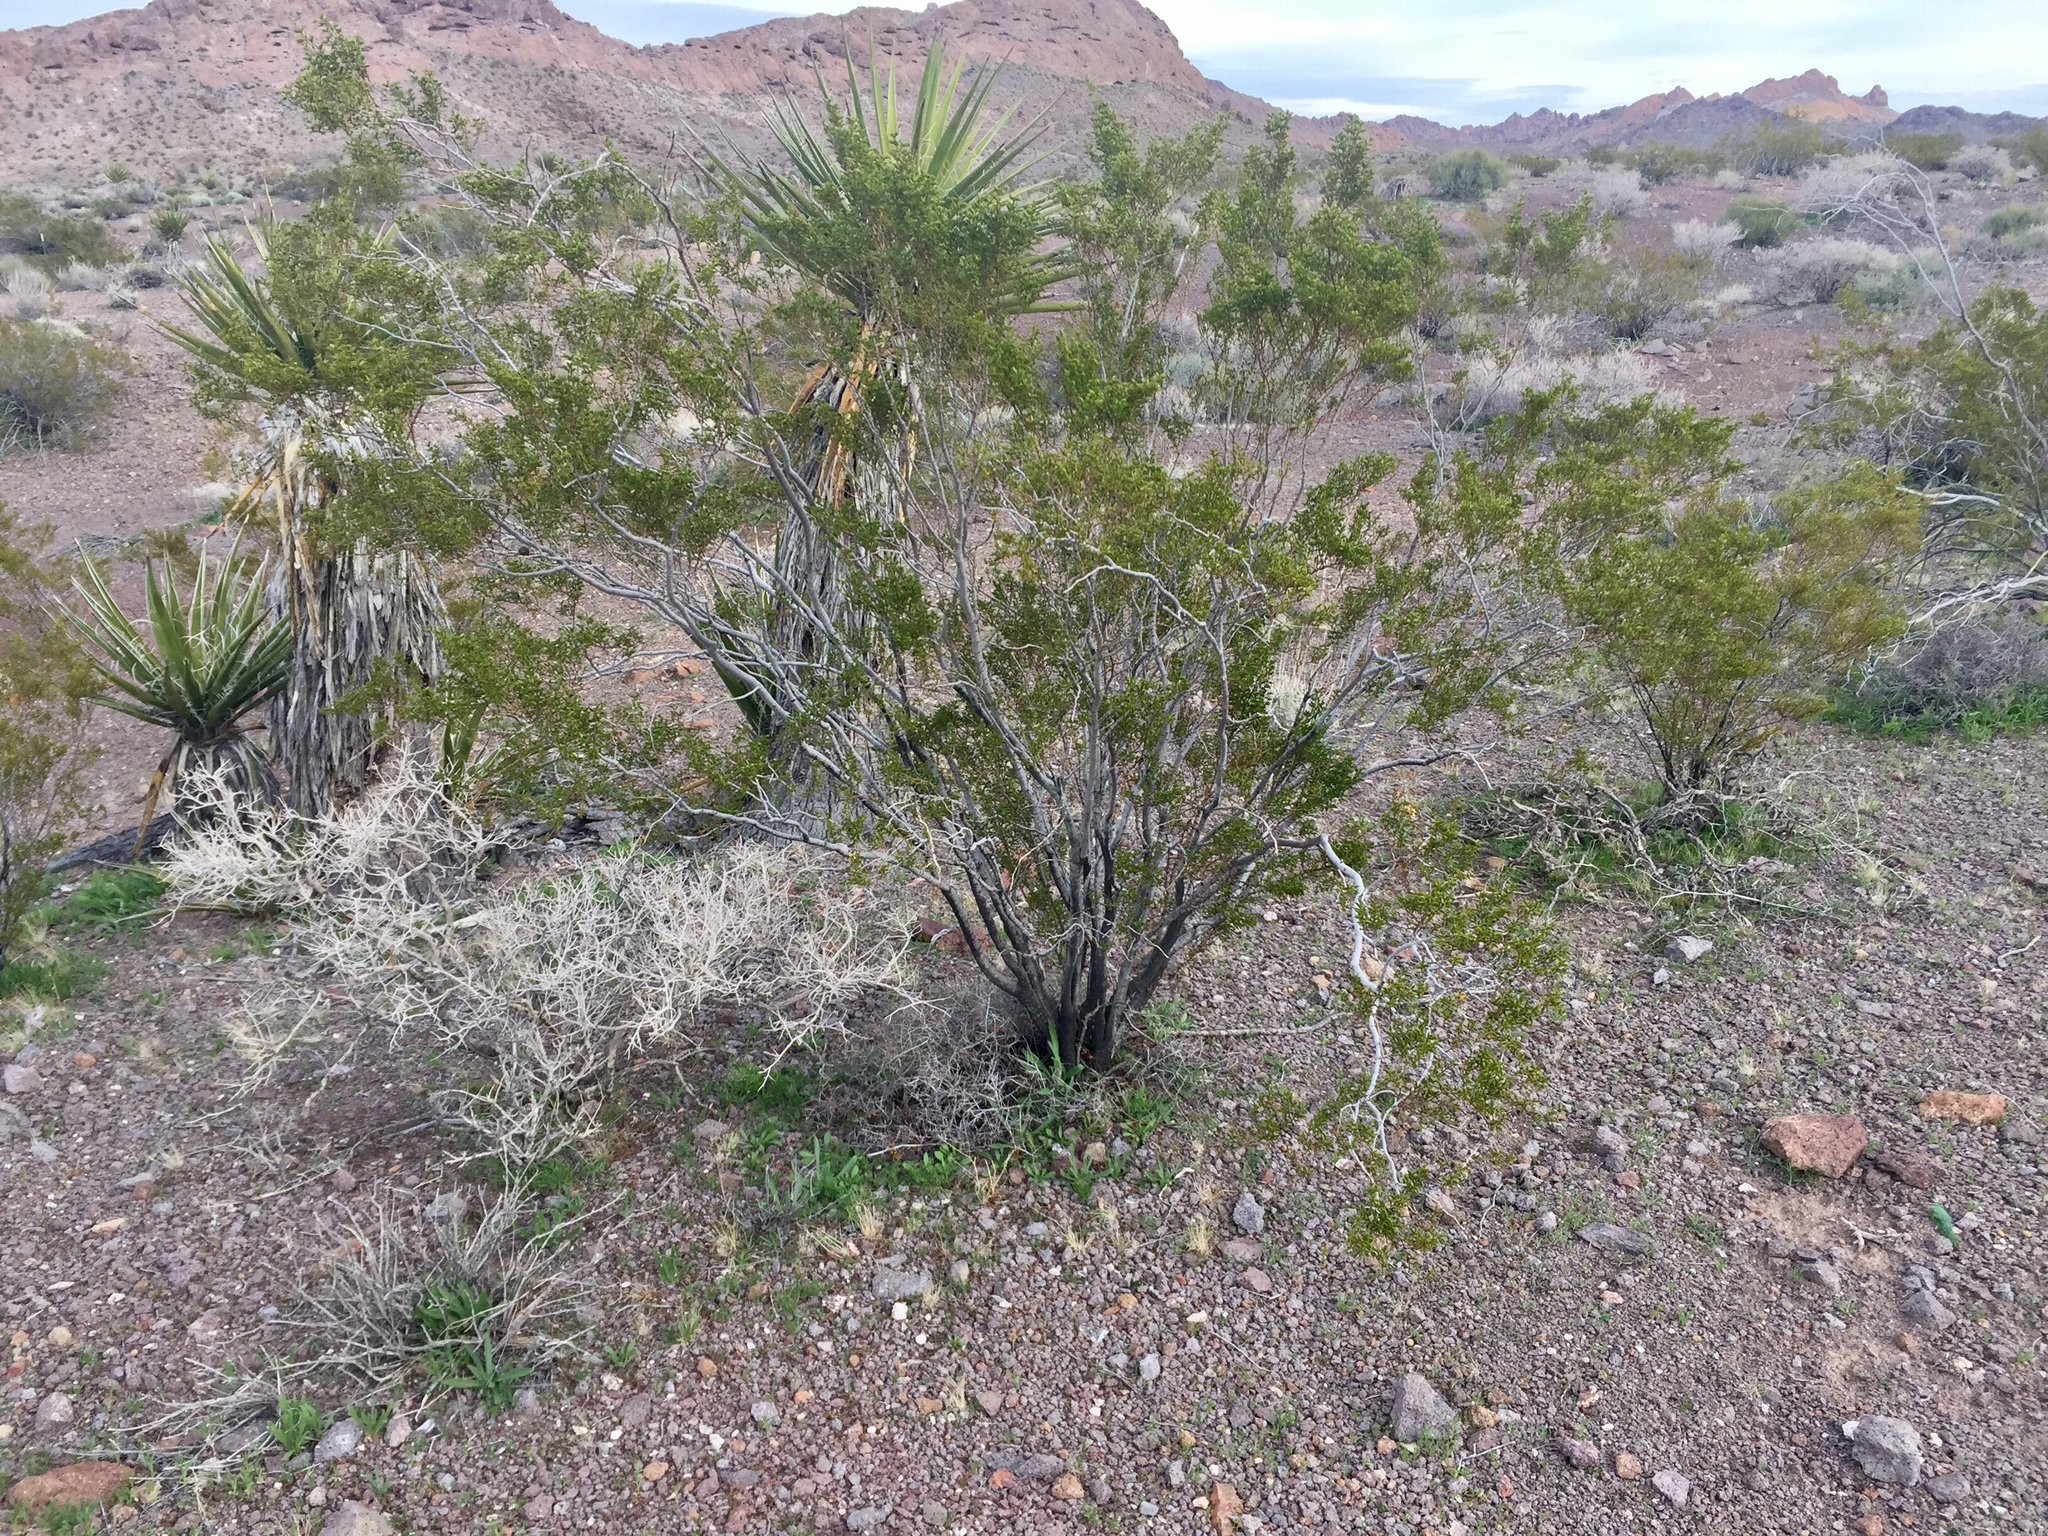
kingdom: Plantae
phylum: Tracheophyta
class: Magnoliopsida
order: Zygophyllales
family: Zygophyllaceae
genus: Larrea
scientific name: Larrea tridentata
